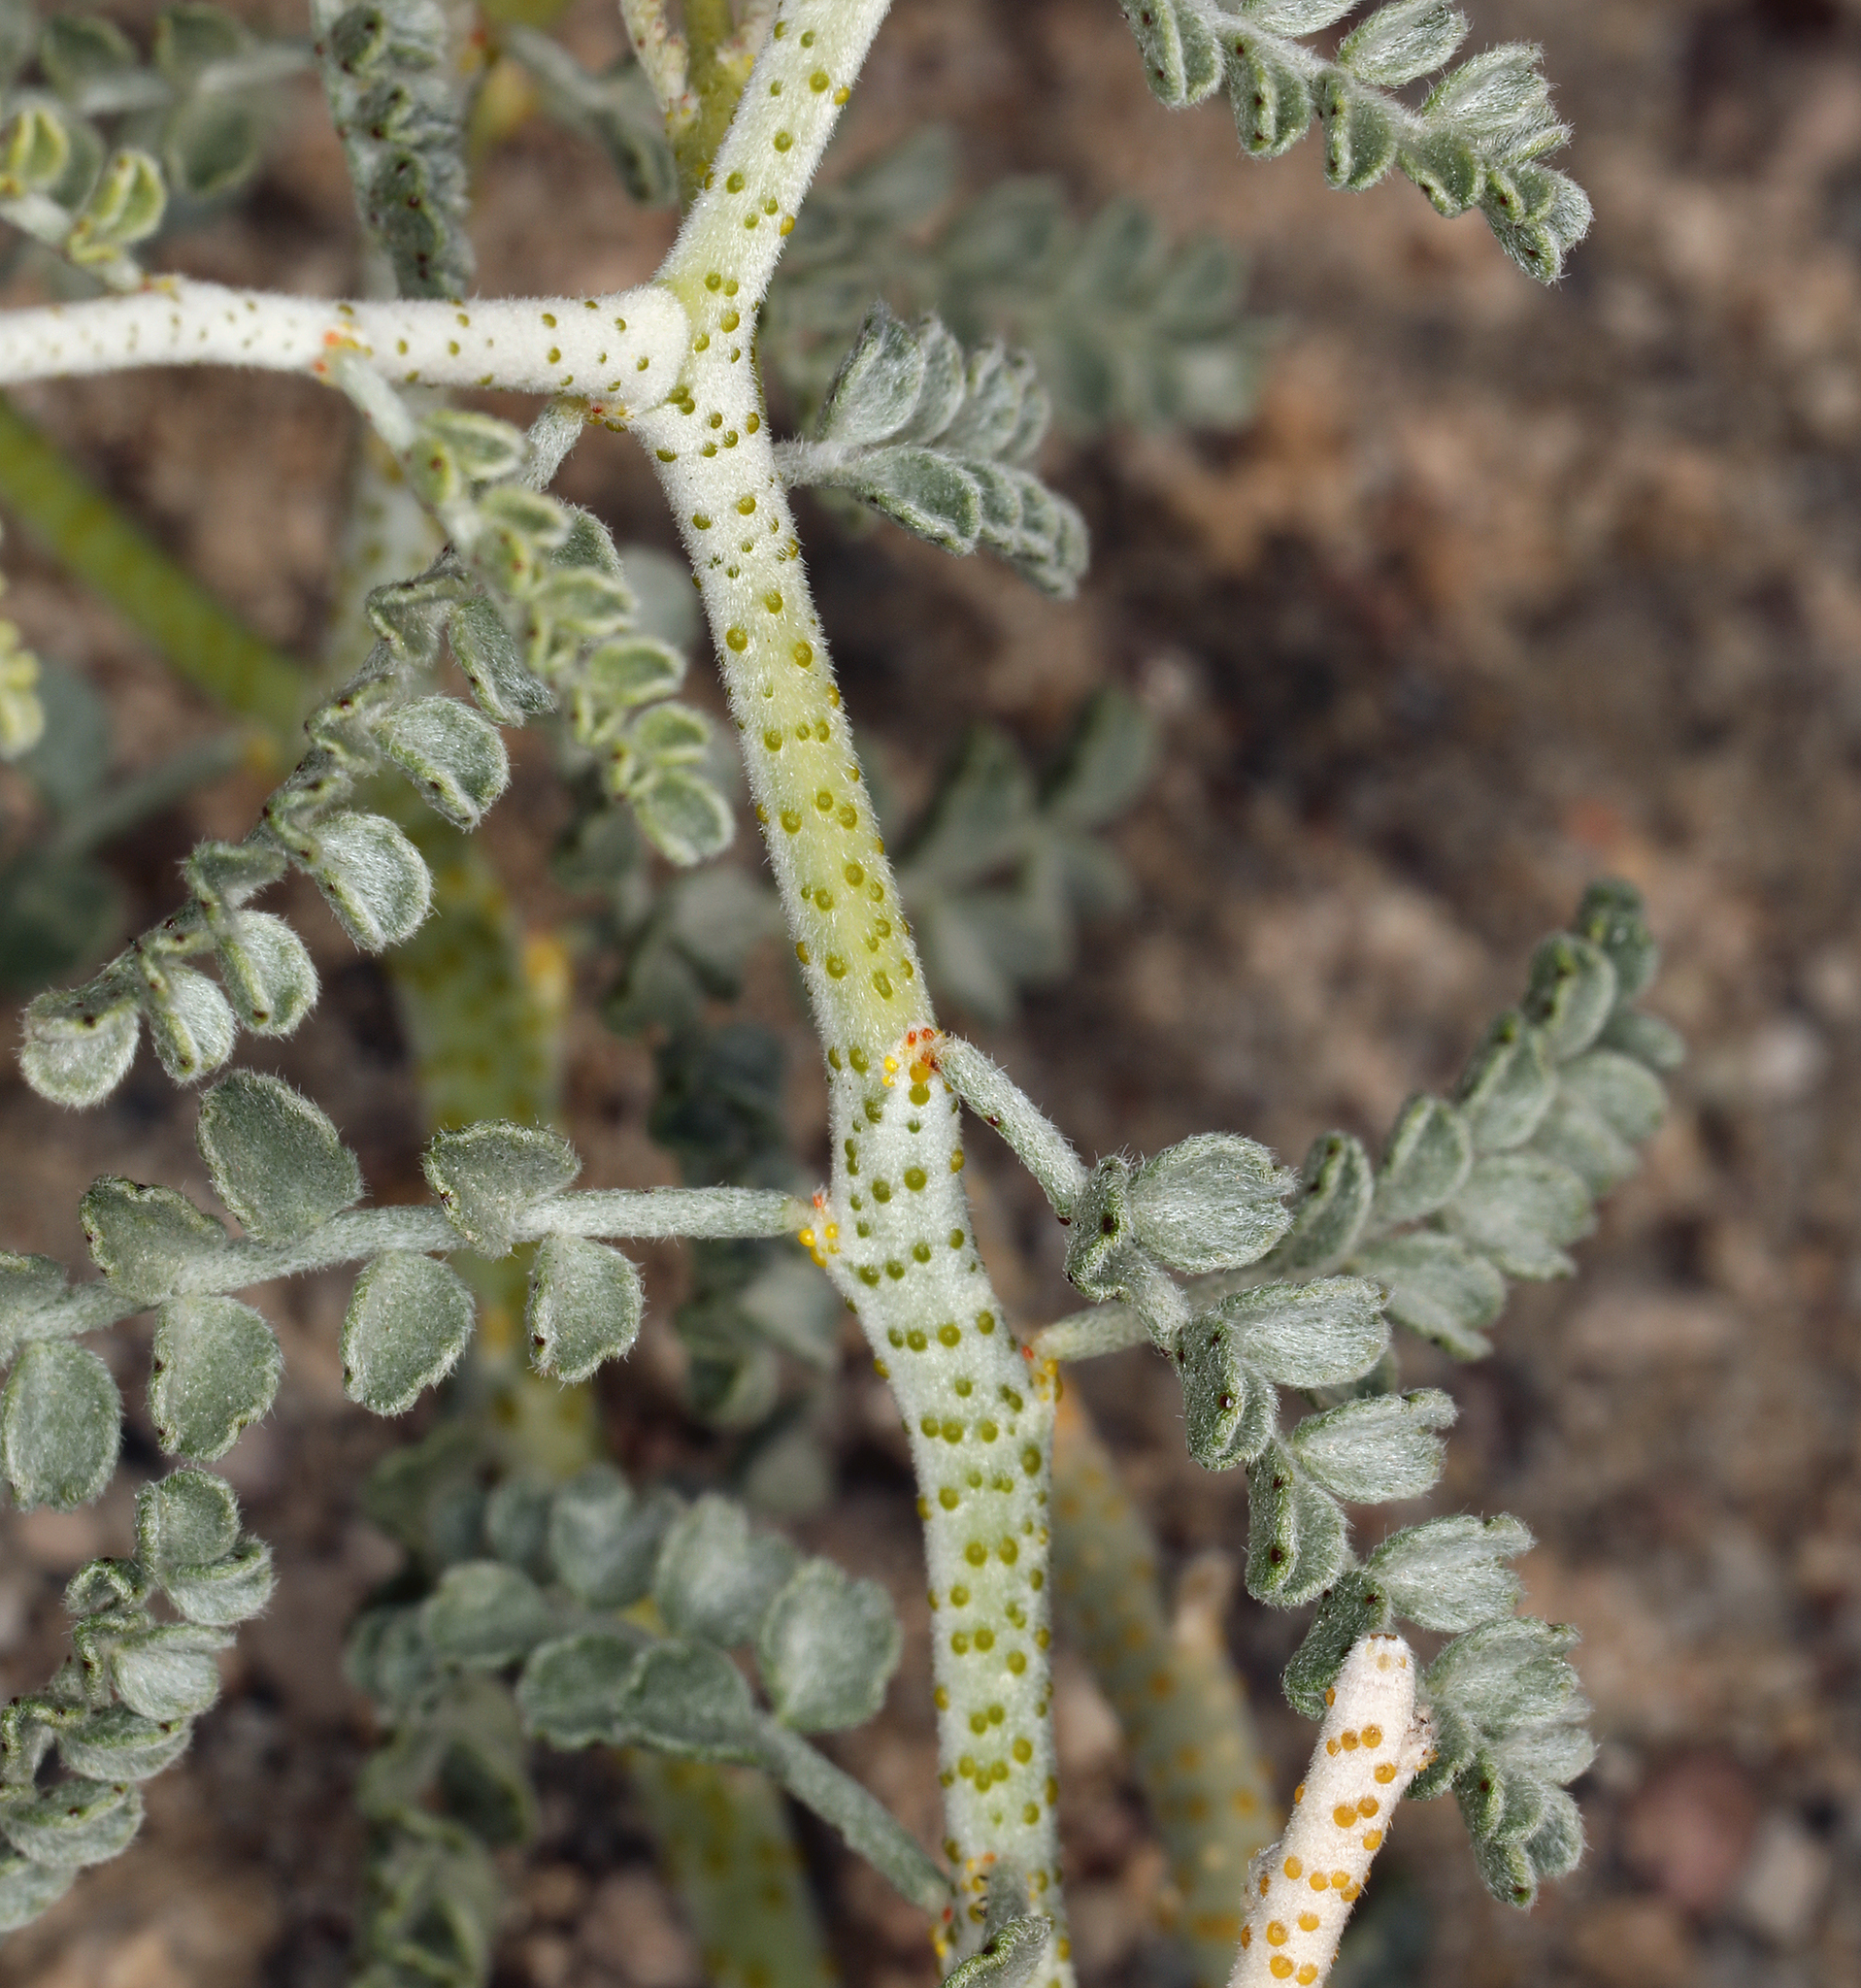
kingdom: Plantae
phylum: Tracheophyta
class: Magnoliopsida
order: Fabales
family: Fabaceae
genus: Psorothamnus
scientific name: Psorothamnus polydenius
